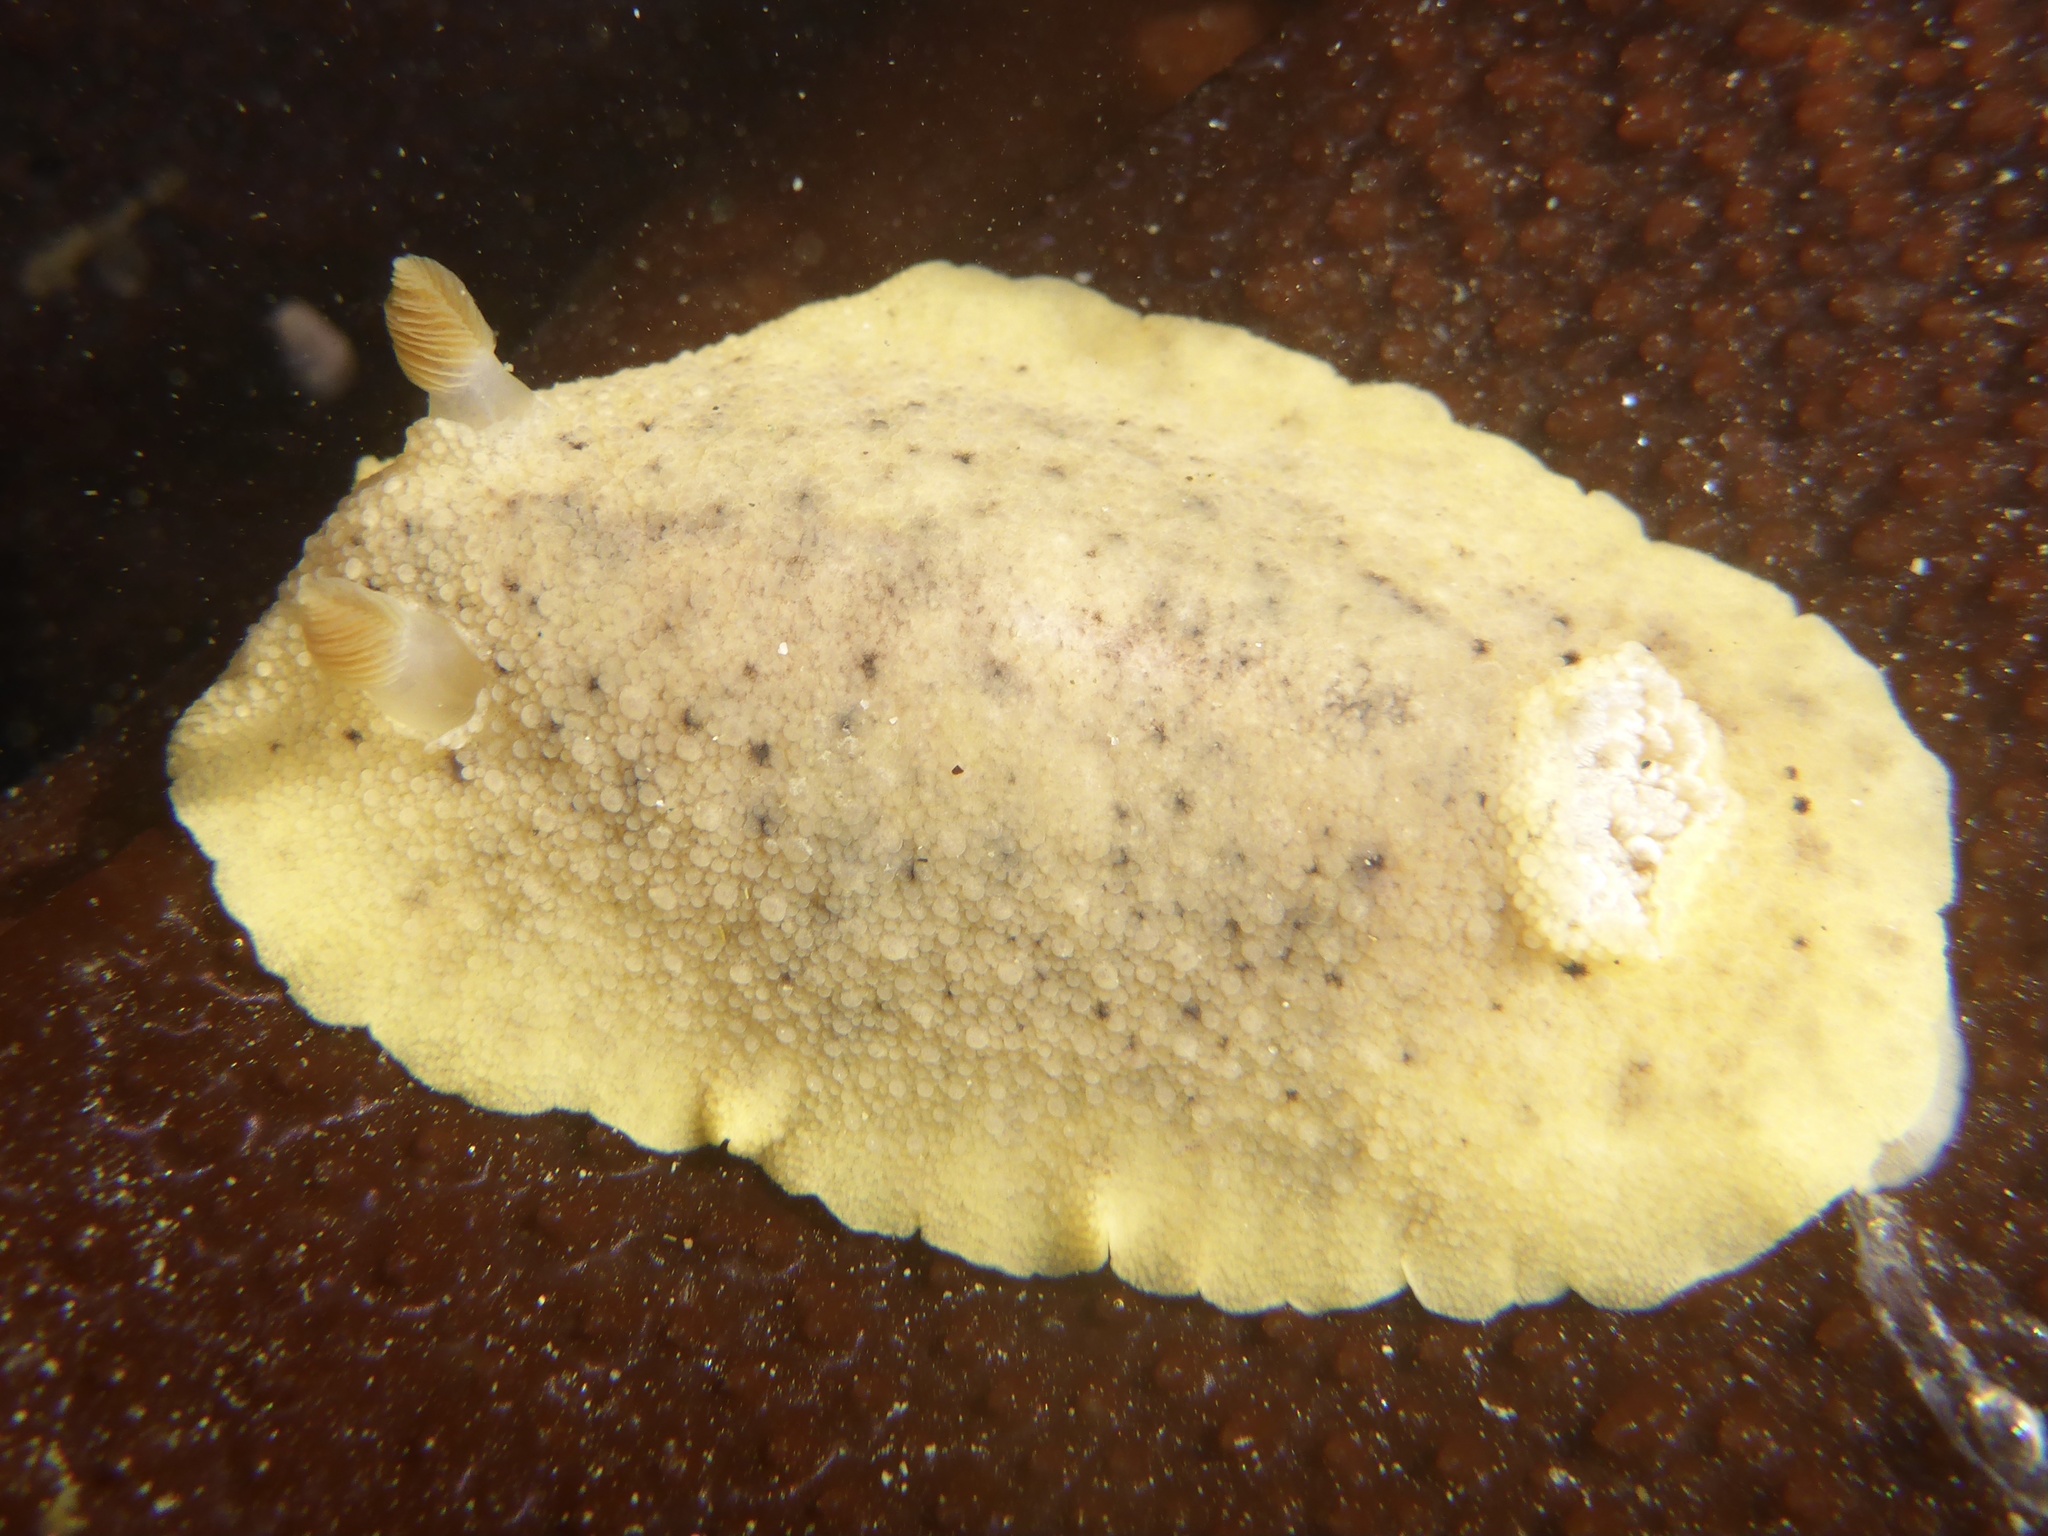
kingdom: Animalia
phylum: Mollusca
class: Gastropoda
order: Nudibranchia
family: Discodorididae
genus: Geitodoris
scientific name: Geitodoris heathi
